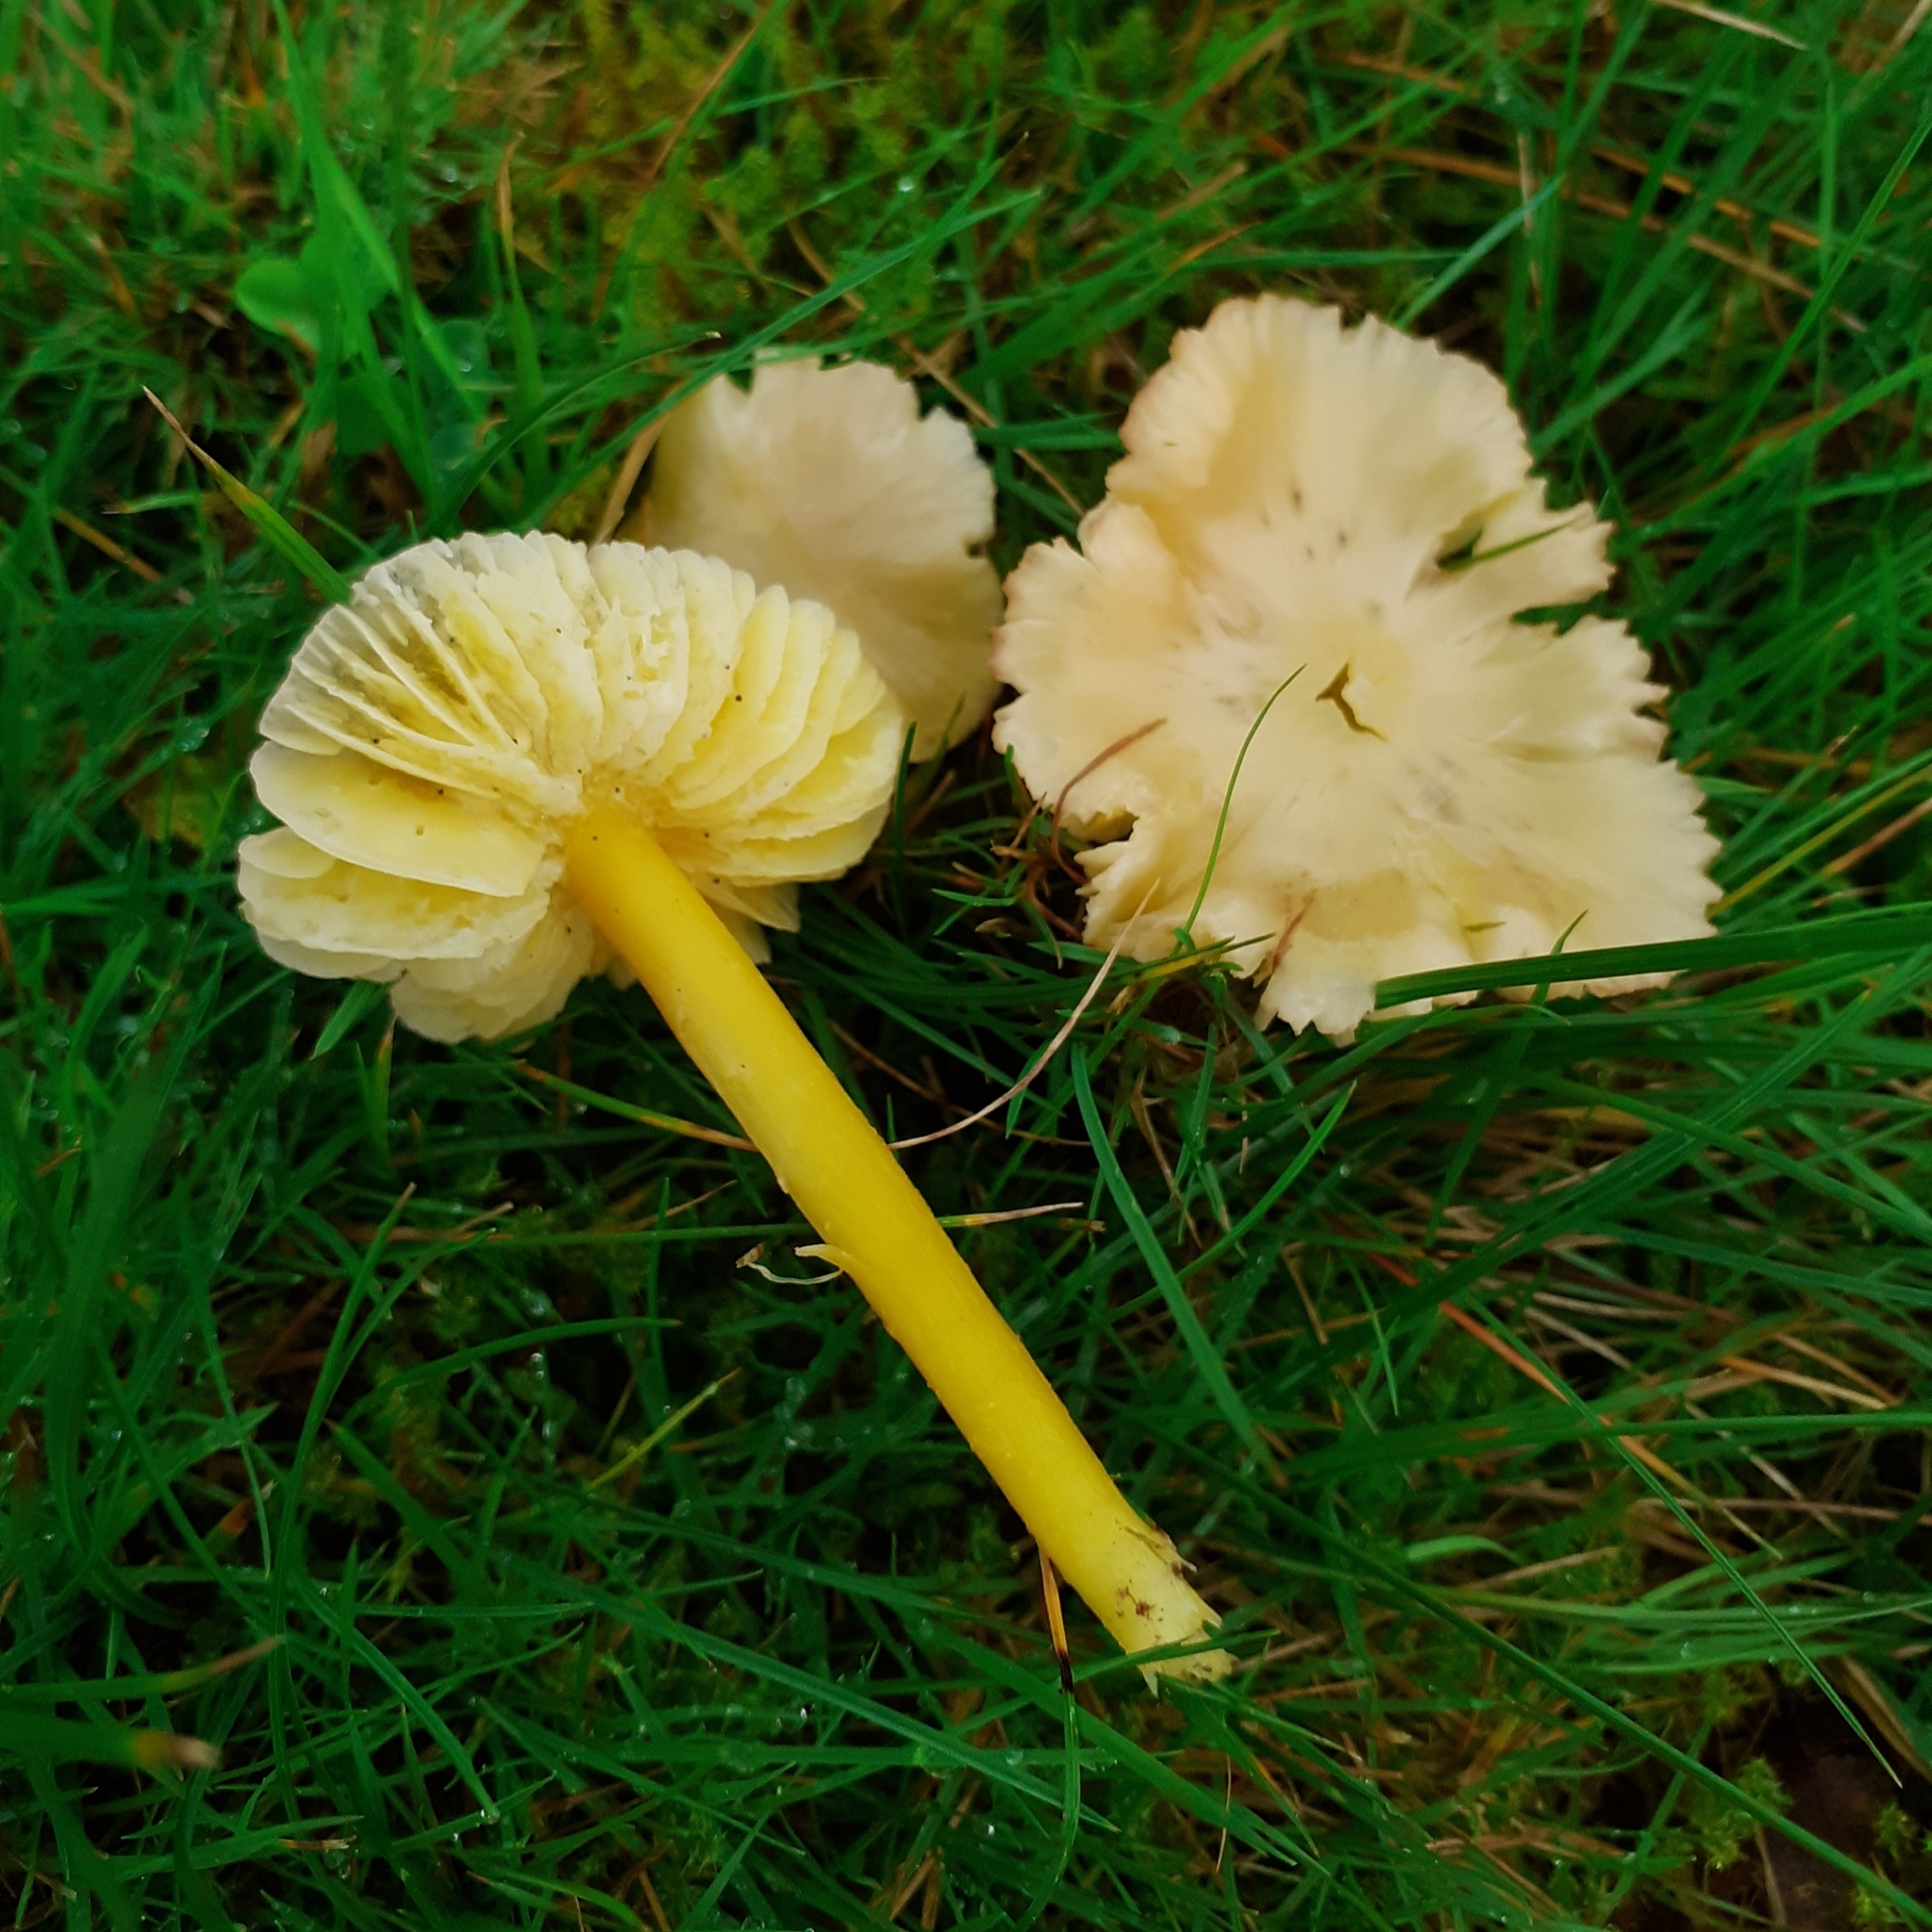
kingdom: Fungi
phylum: Basidiomycota
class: Agaricomycetes
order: Agaricales
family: Hygrophoraceae
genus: Hygrocybe
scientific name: Hygrocybe chlorophana
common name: Golden waxcap
